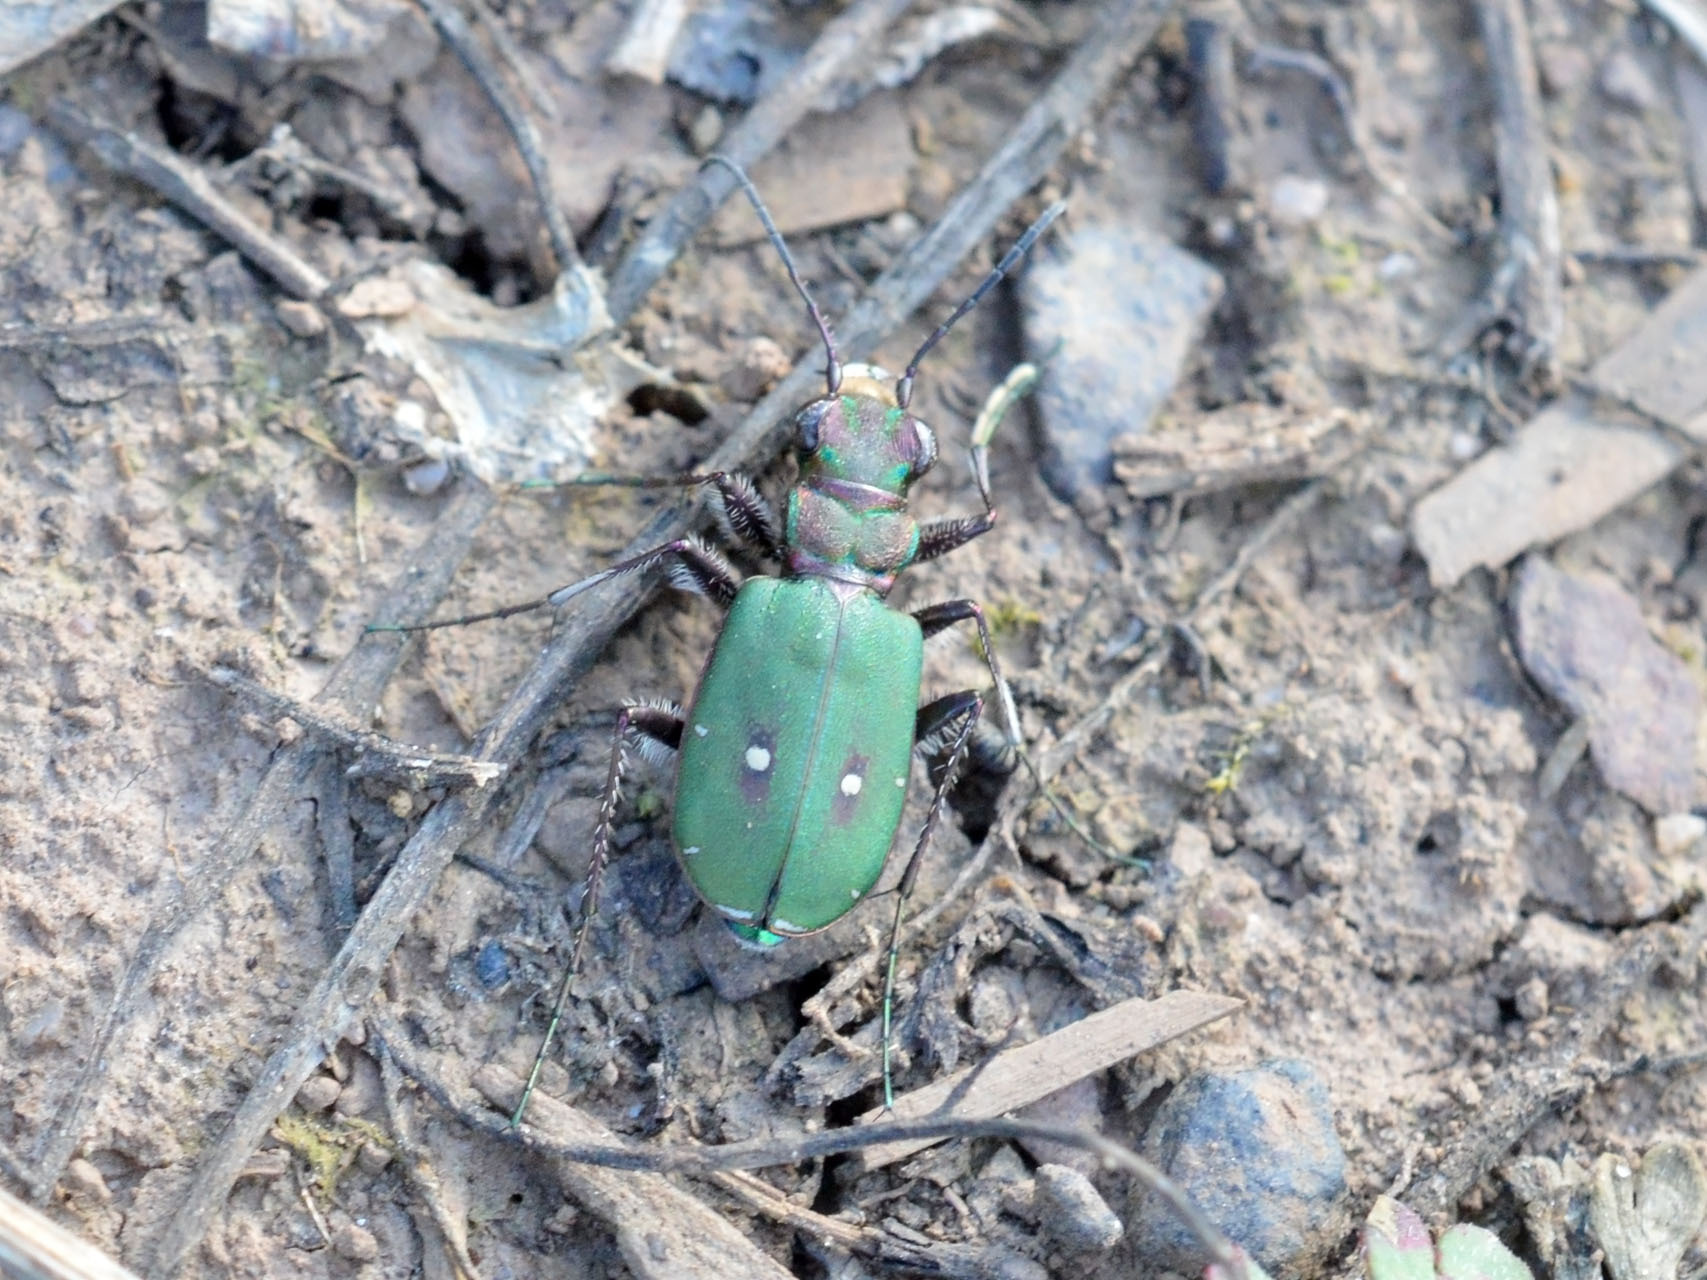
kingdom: Animalia
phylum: Arthropoda
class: Insecta
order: Coleoptera
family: Carabidae
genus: Cicindela
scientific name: Cicindela campestris
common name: Common tiger beetle
